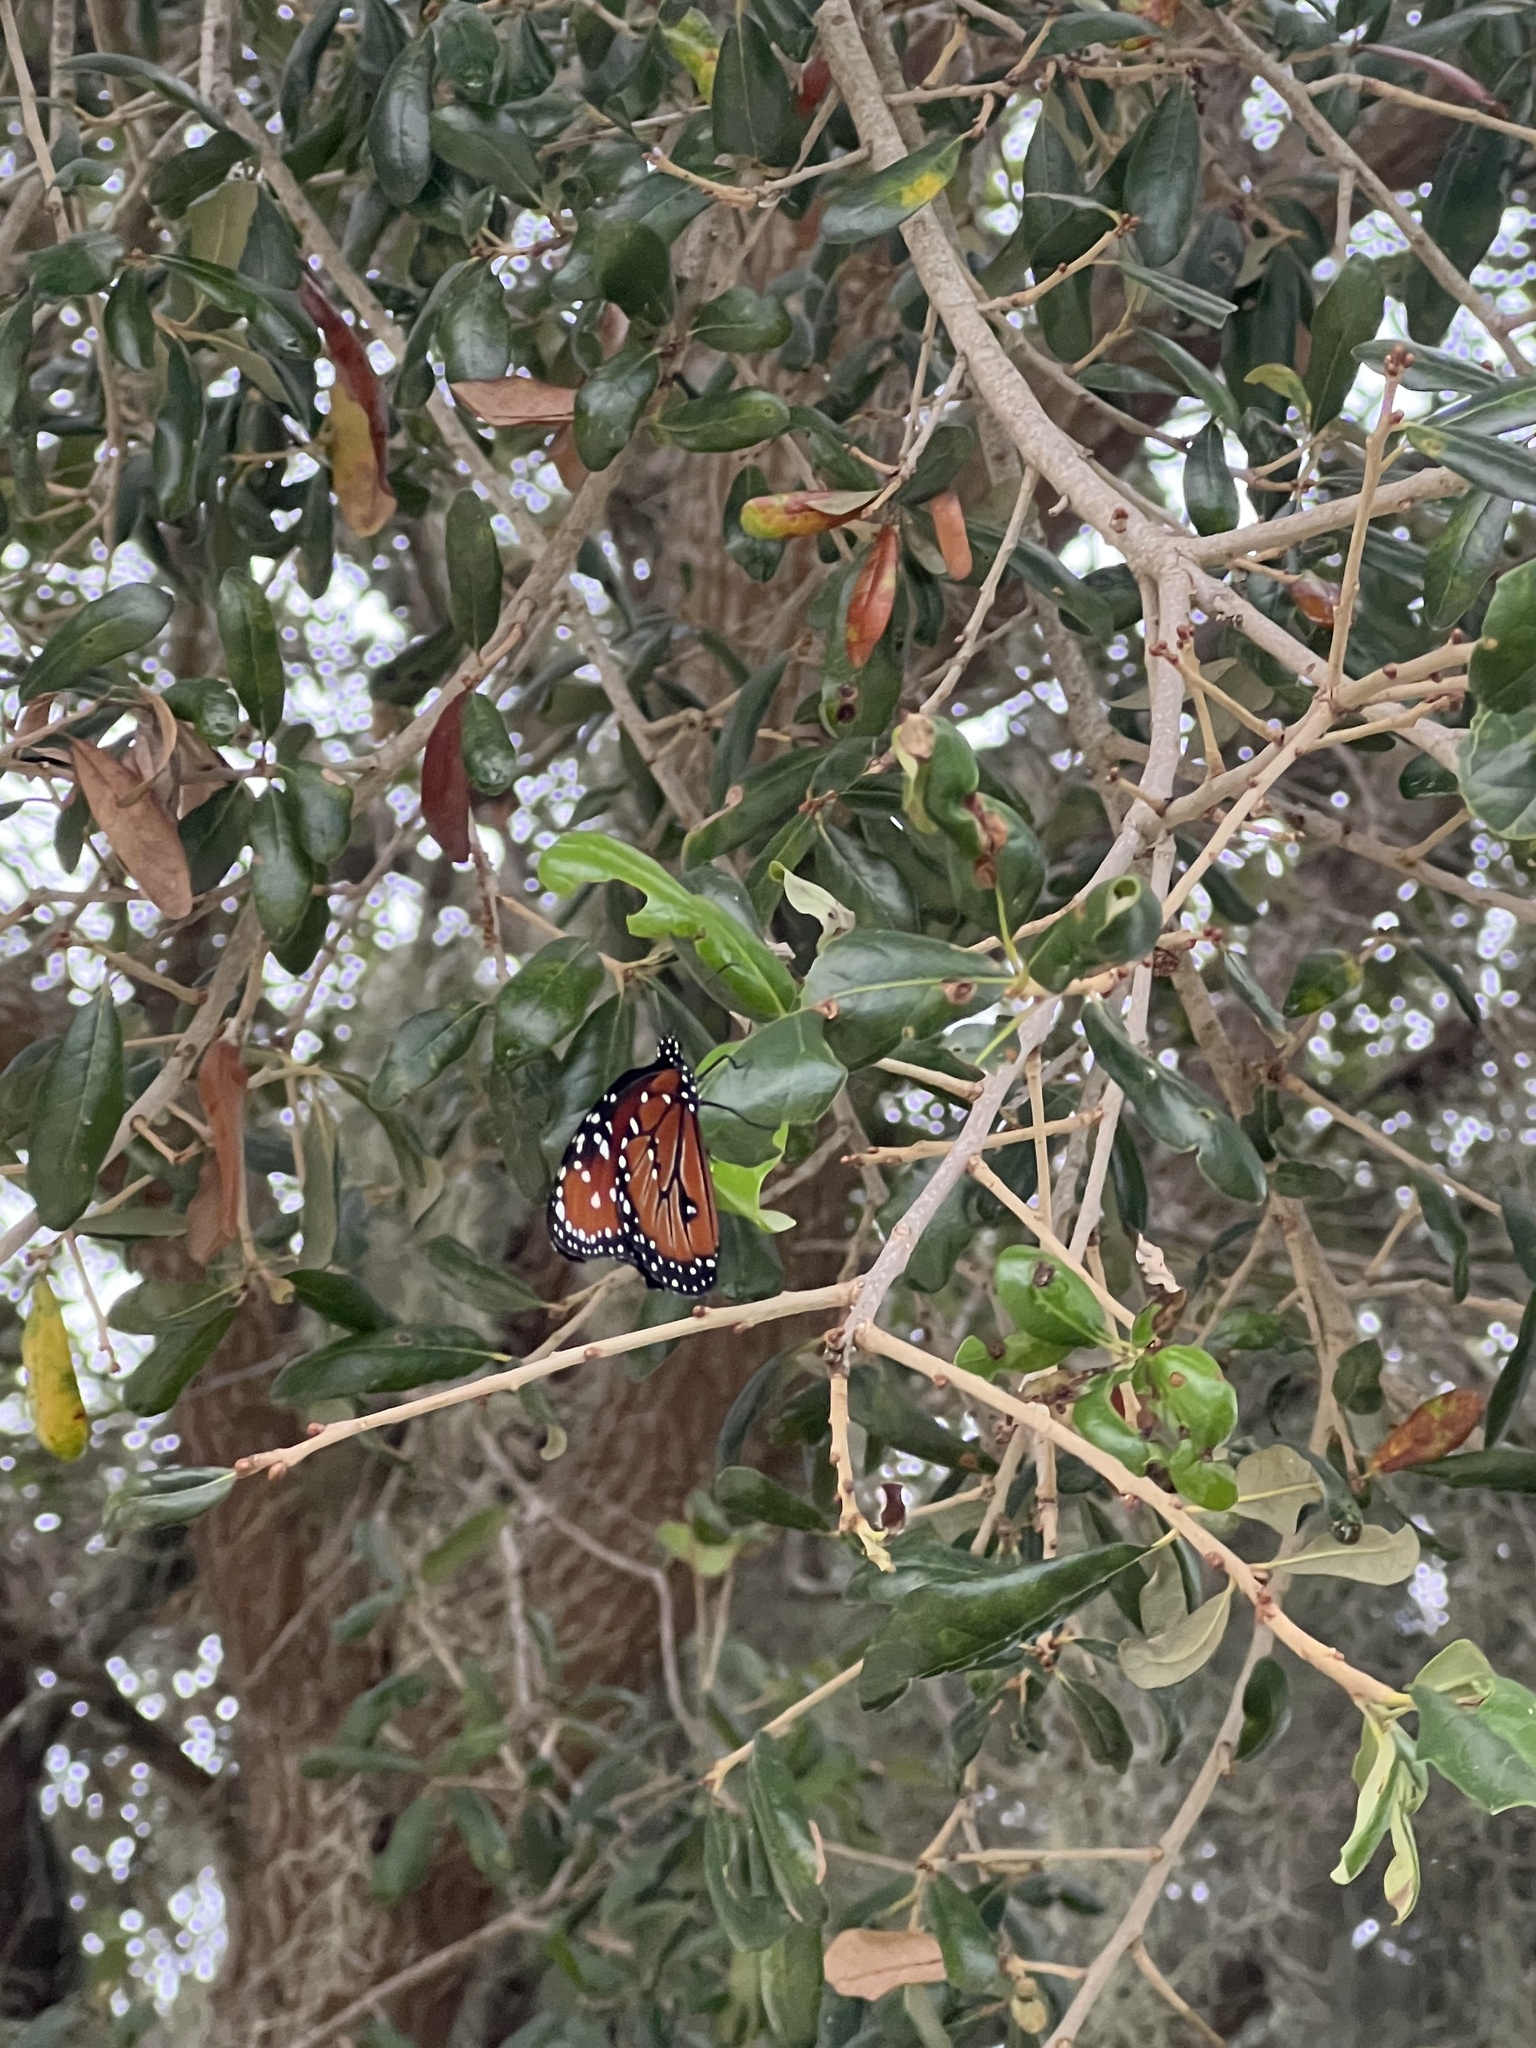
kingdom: Animalia
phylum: Arthropoda
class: Insecta
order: Lepidoptera
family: Nymphalidae
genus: Danaus
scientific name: Danaus gilippus
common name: Queen
